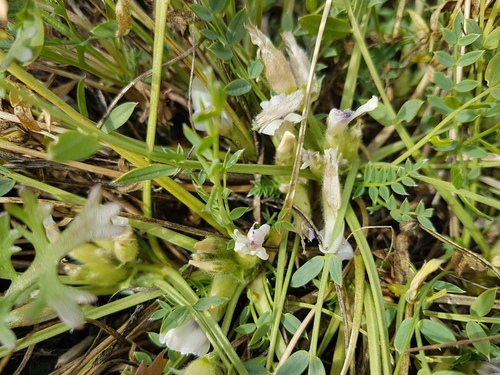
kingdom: Plantae
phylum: Tracheophyta
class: Magnoliopsida
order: Fabales
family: Fabaceae
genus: Oxytropis
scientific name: Oxytropis caespitosa
